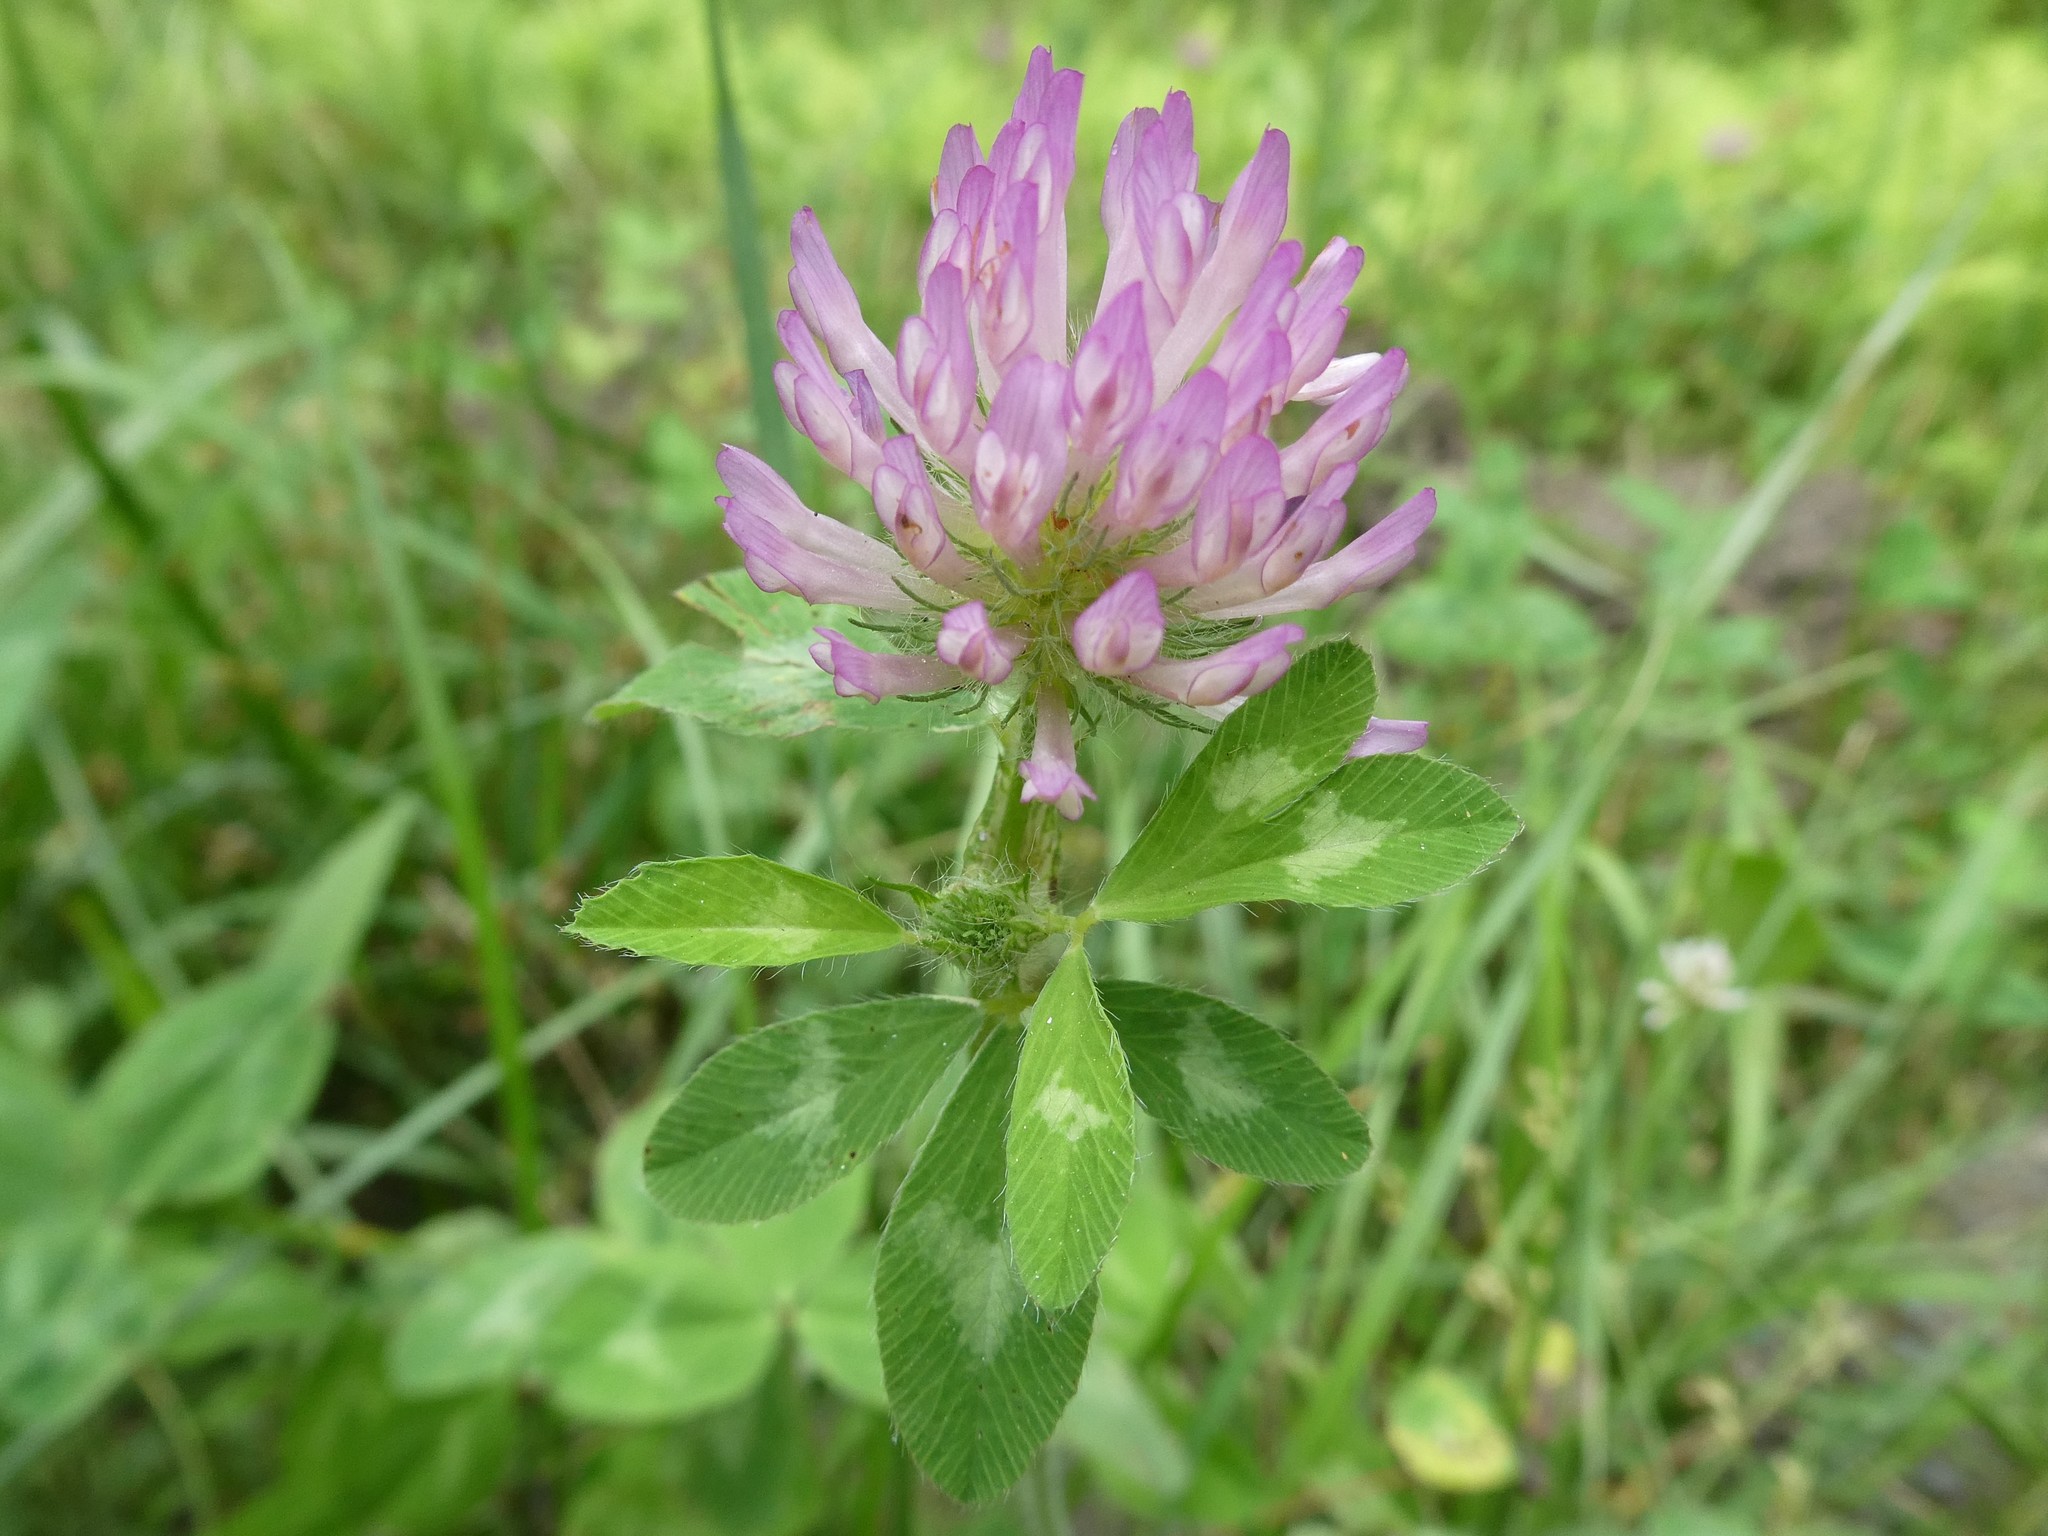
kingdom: Plantae
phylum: Tracheophyta
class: Magnoliopsida
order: Fabales
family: Fabaceae
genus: Trifolium
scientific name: Trifolium pratense
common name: Red clover
